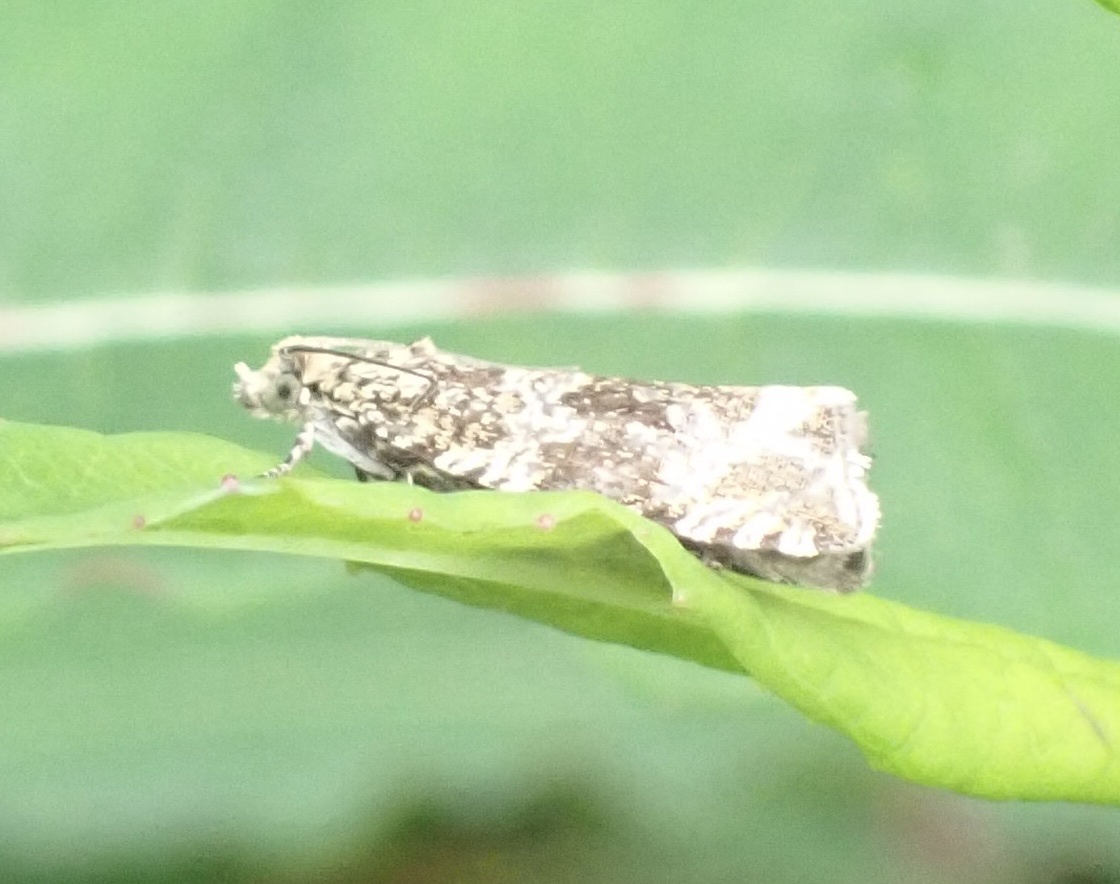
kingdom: Animalia
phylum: Arthropoda
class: Insecta
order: Lepidoptera
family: Tortricidae
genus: Syricoris
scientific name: Syricoris lacunana
